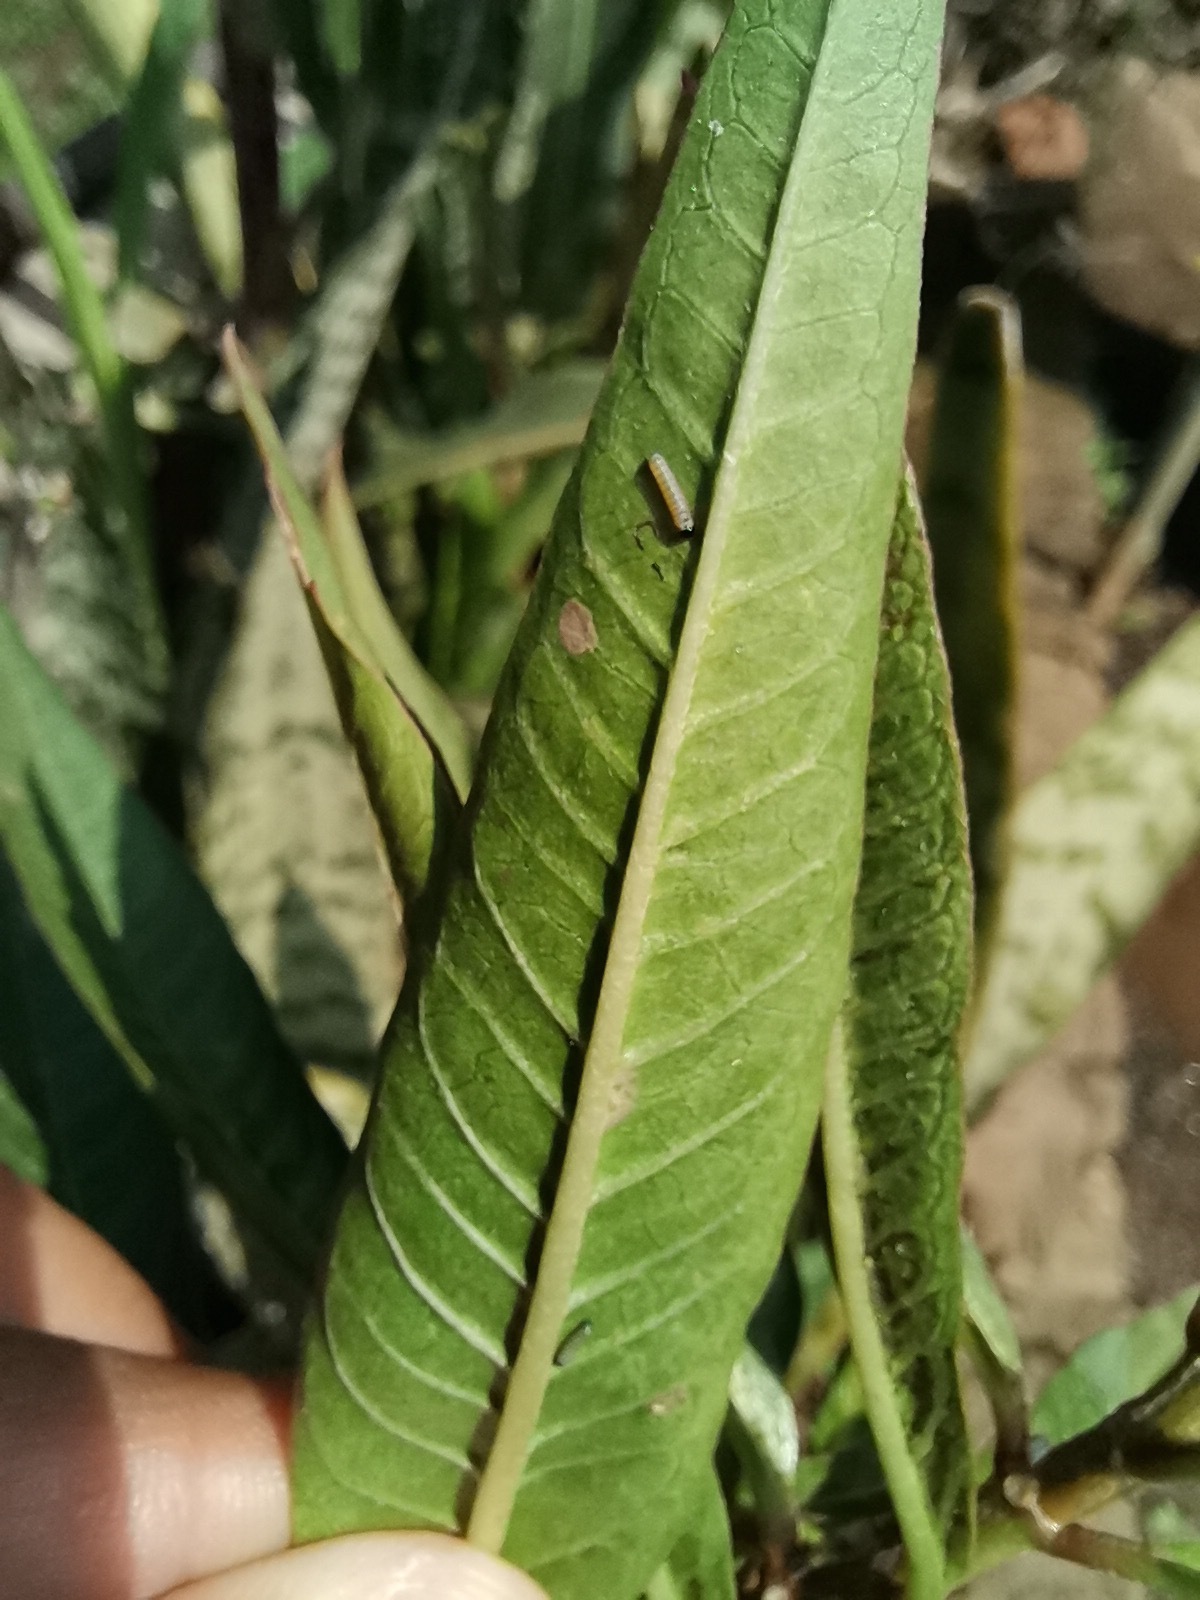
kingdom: Animalia
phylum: Arthropoda
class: Insecta
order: Lepidoptera
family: Nymphalidae
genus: Danaus
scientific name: Danaus plexippus
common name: Monarch
